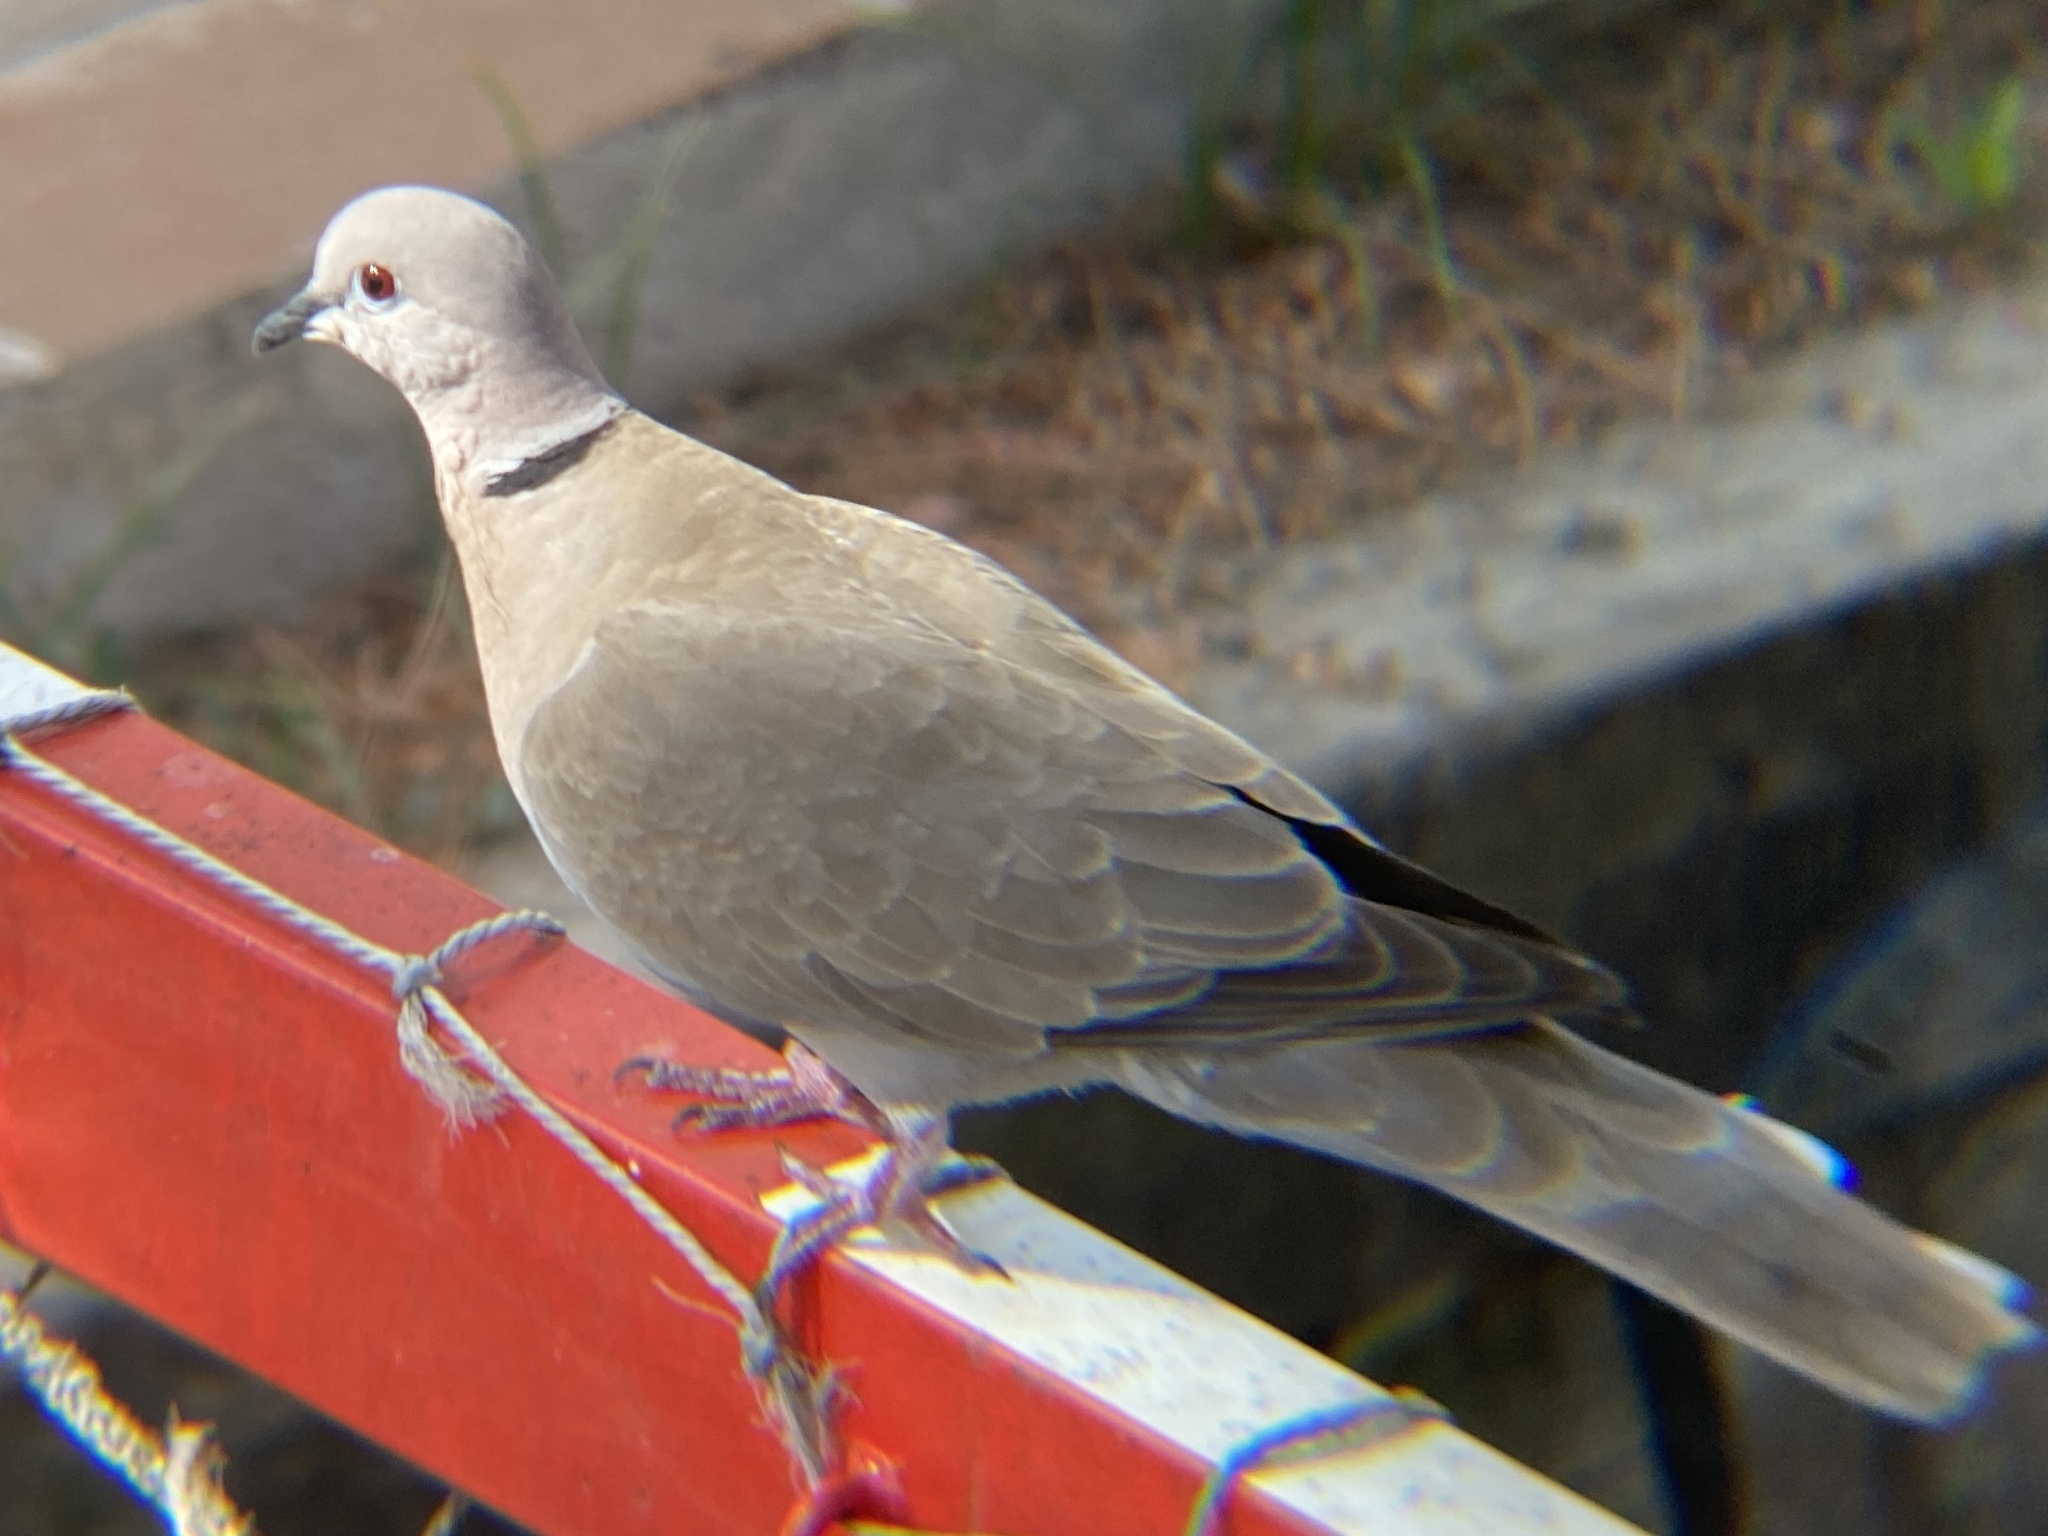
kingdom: Animalia
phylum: Chordata
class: Aves
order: Columbiformes
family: Columbidae
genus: Streptopelia
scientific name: Streptopelia decaocto
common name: Eurasian collared dove
